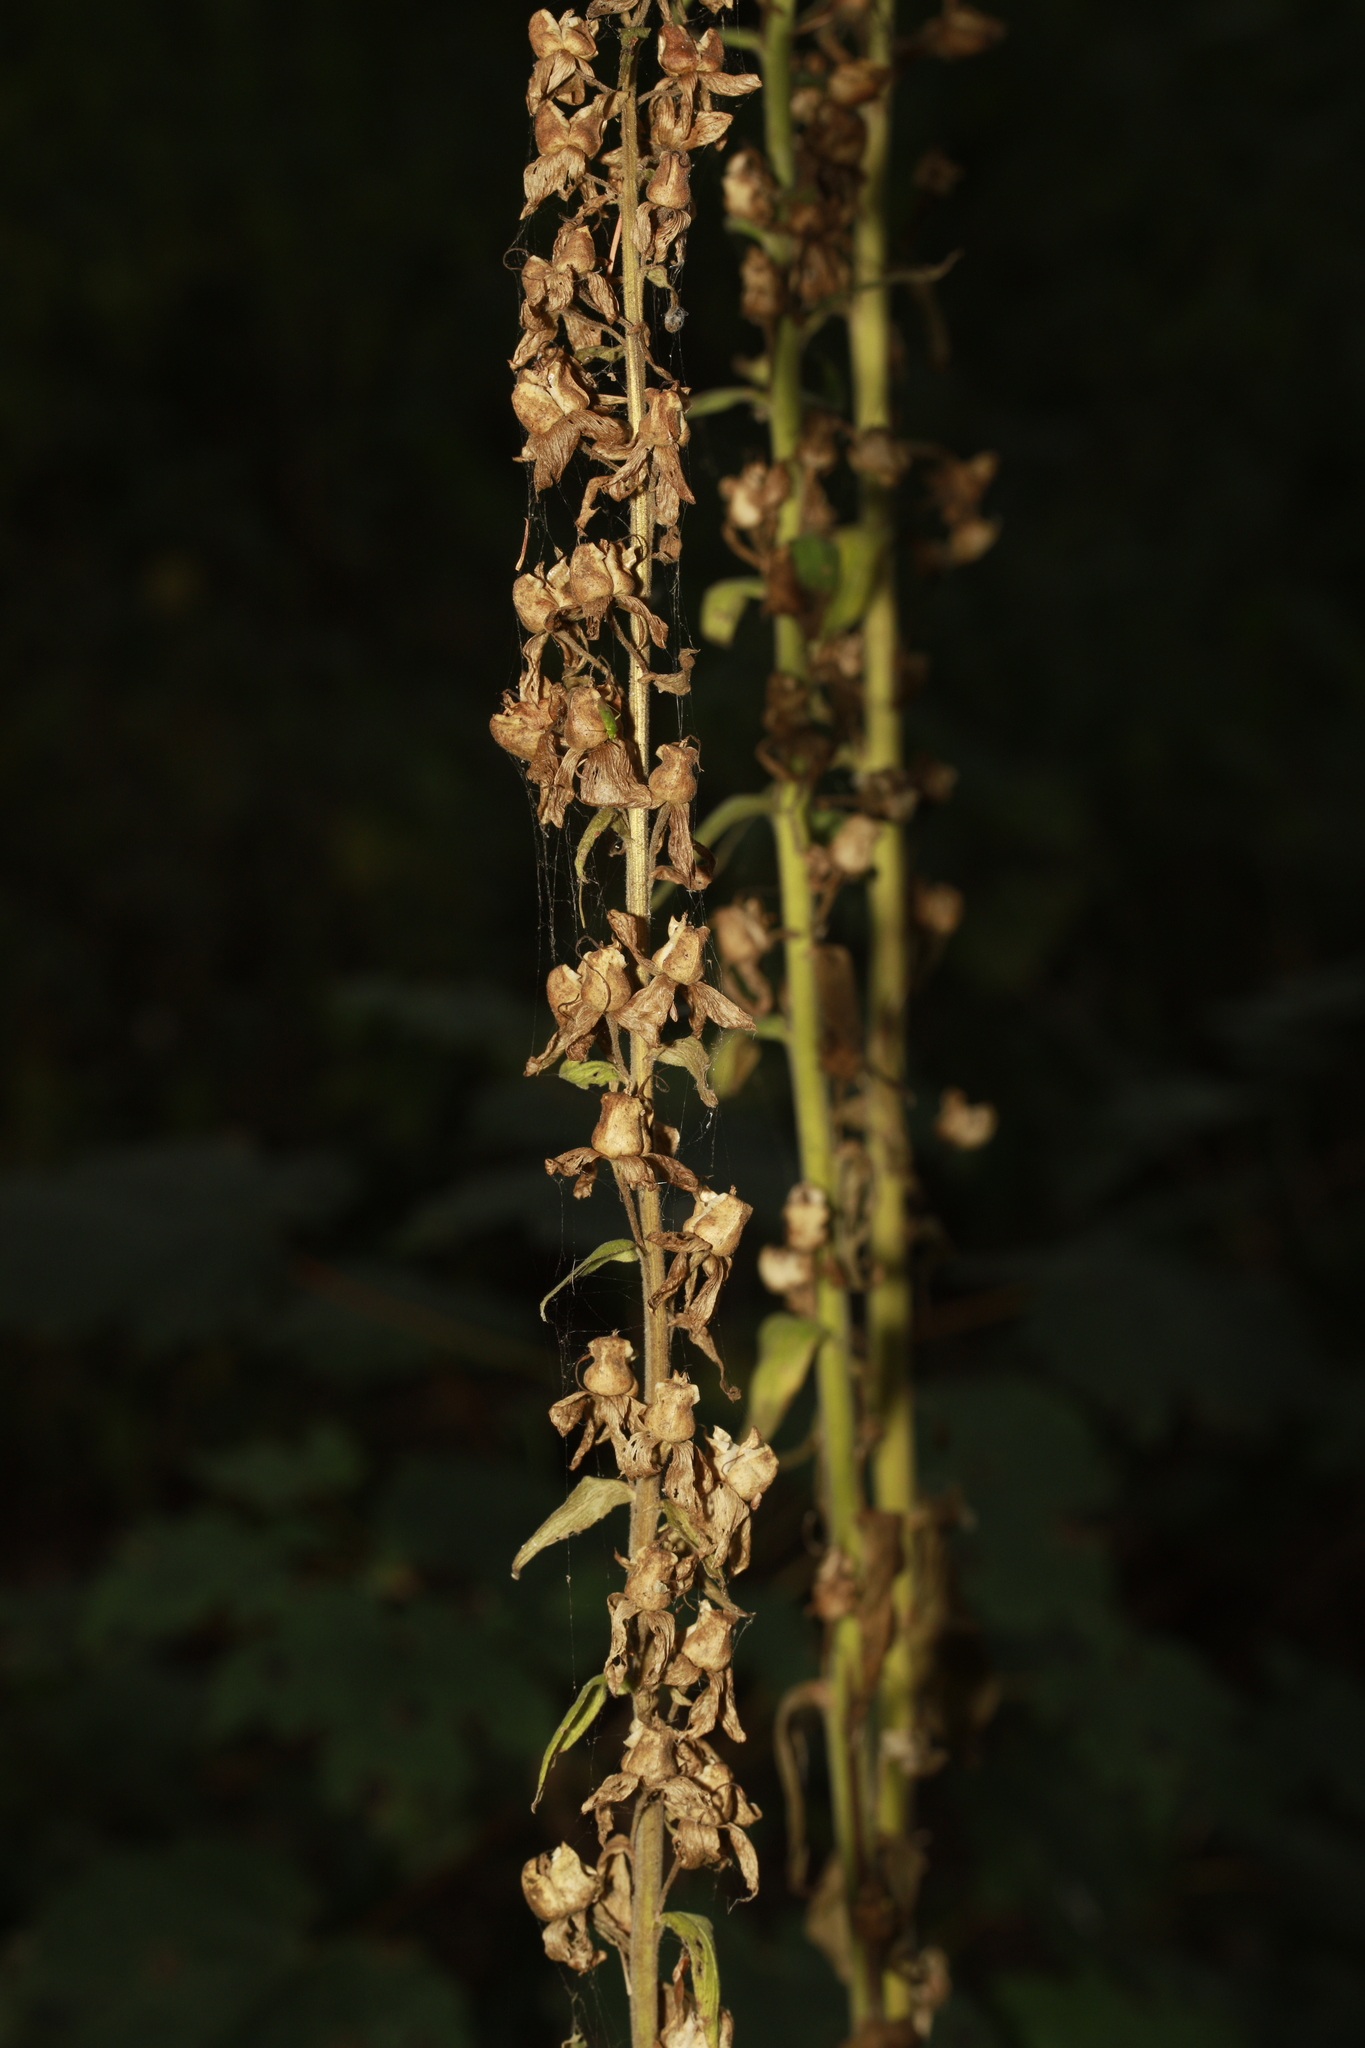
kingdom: Plantae
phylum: Tracheophyta
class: Magnoliopsida
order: Lamiales
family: Plantaginaceae
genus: Digitalis
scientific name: Digitalis purpurea
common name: Foxglove
